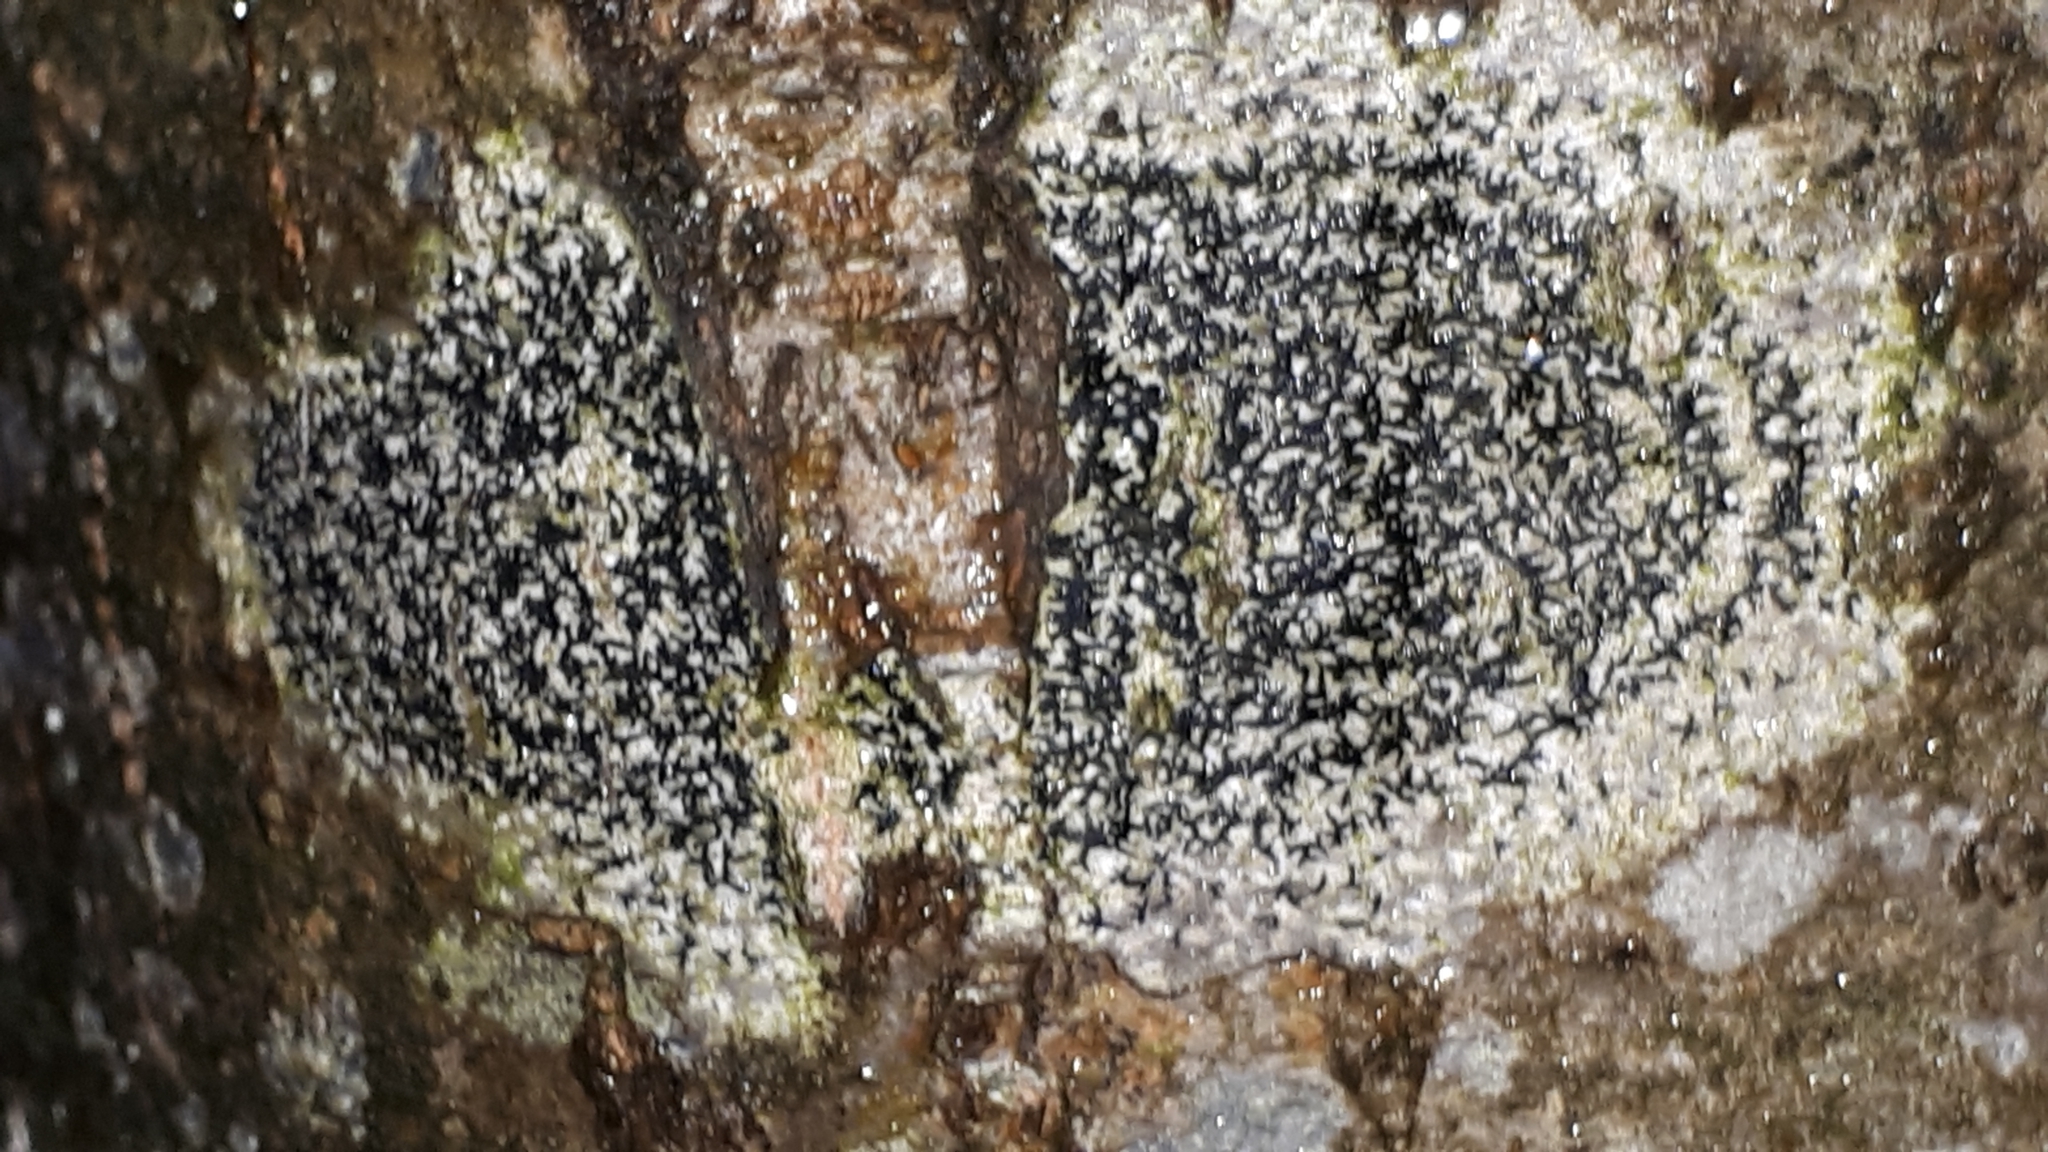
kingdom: Fungi
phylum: Ascomycota
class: Lecanoromycetes
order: Ostropales
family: Graphidaceae
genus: Graphis
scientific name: Graphis scripta
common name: Script lichen
